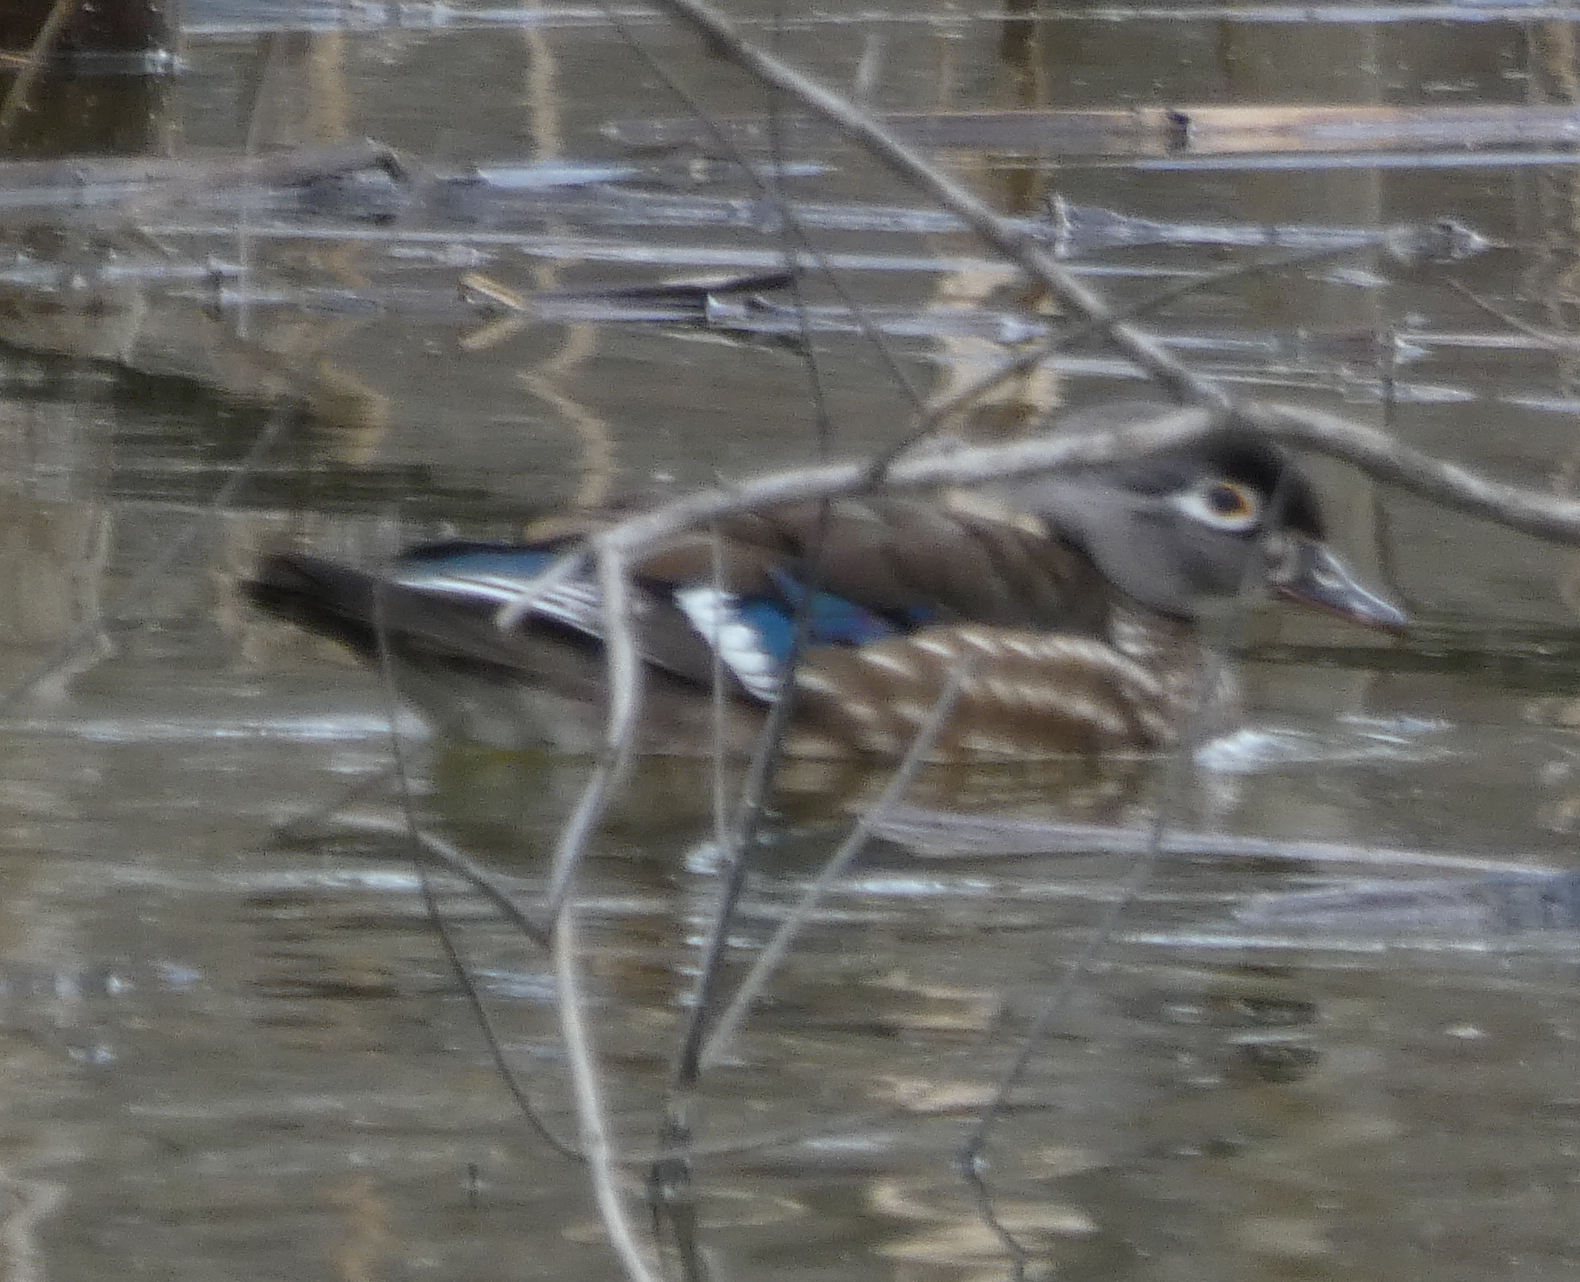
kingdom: Animalia
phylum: Chordata
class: Aves
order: Anseriformes
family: Anatidae
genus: Aix
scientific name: Aix sponsa
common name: Wood duck
